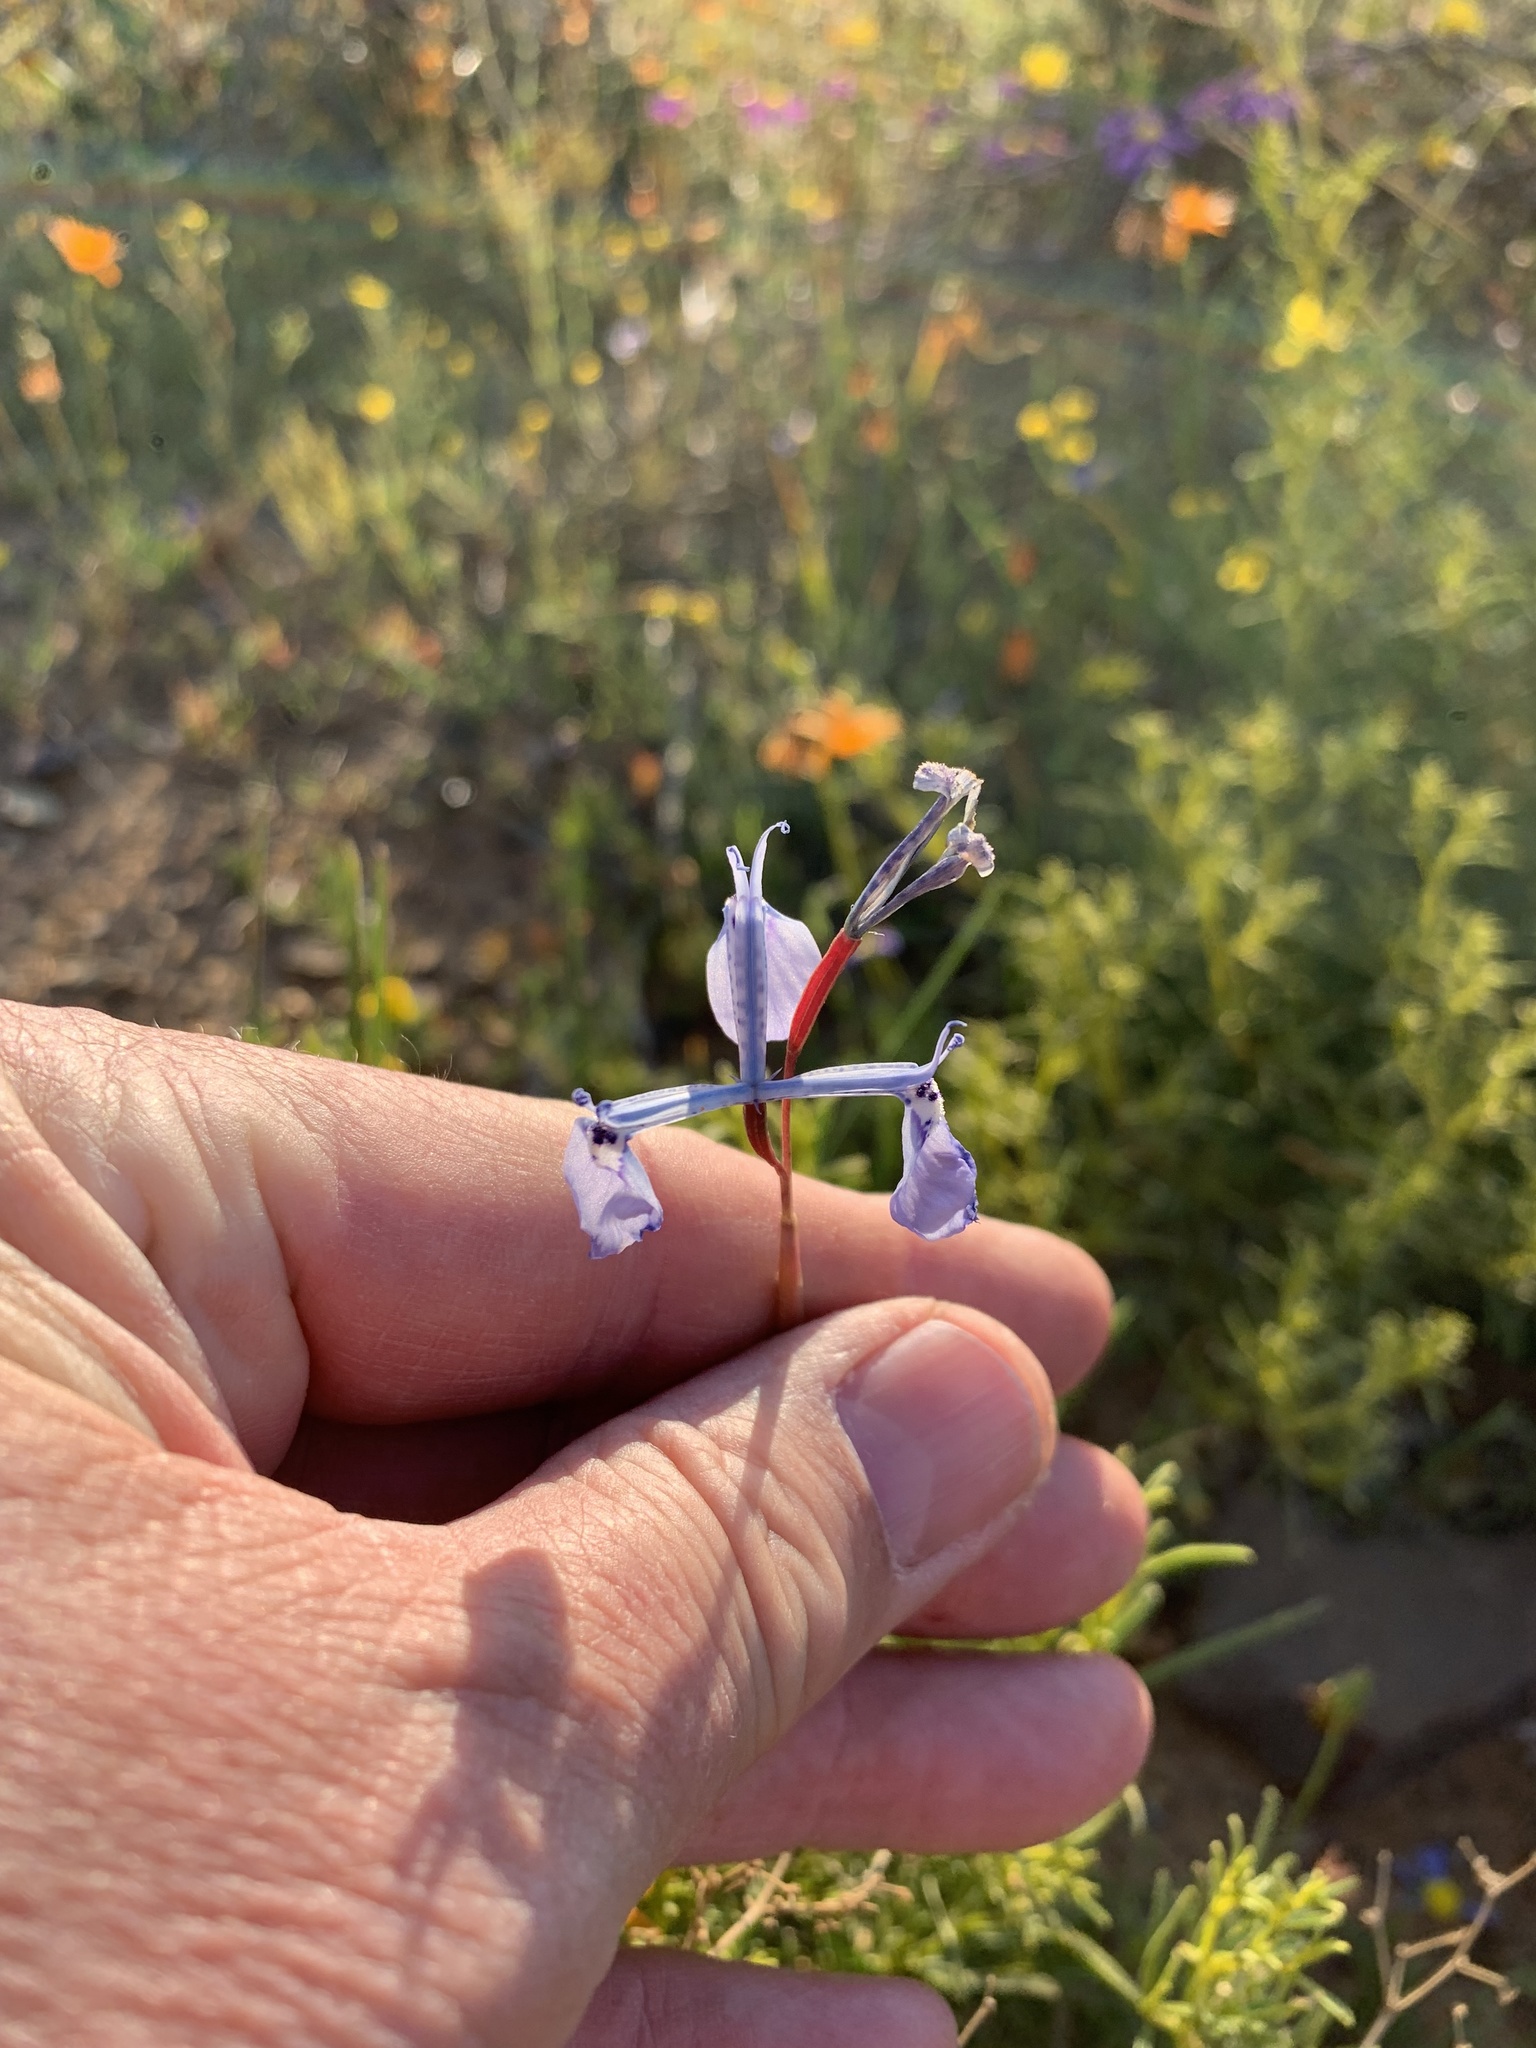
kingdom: Plantae
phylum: Tracheophyta
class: Liliopsida
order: Asparagales
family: Iridaceae
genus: Moraea
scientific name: Moraea tripetala
